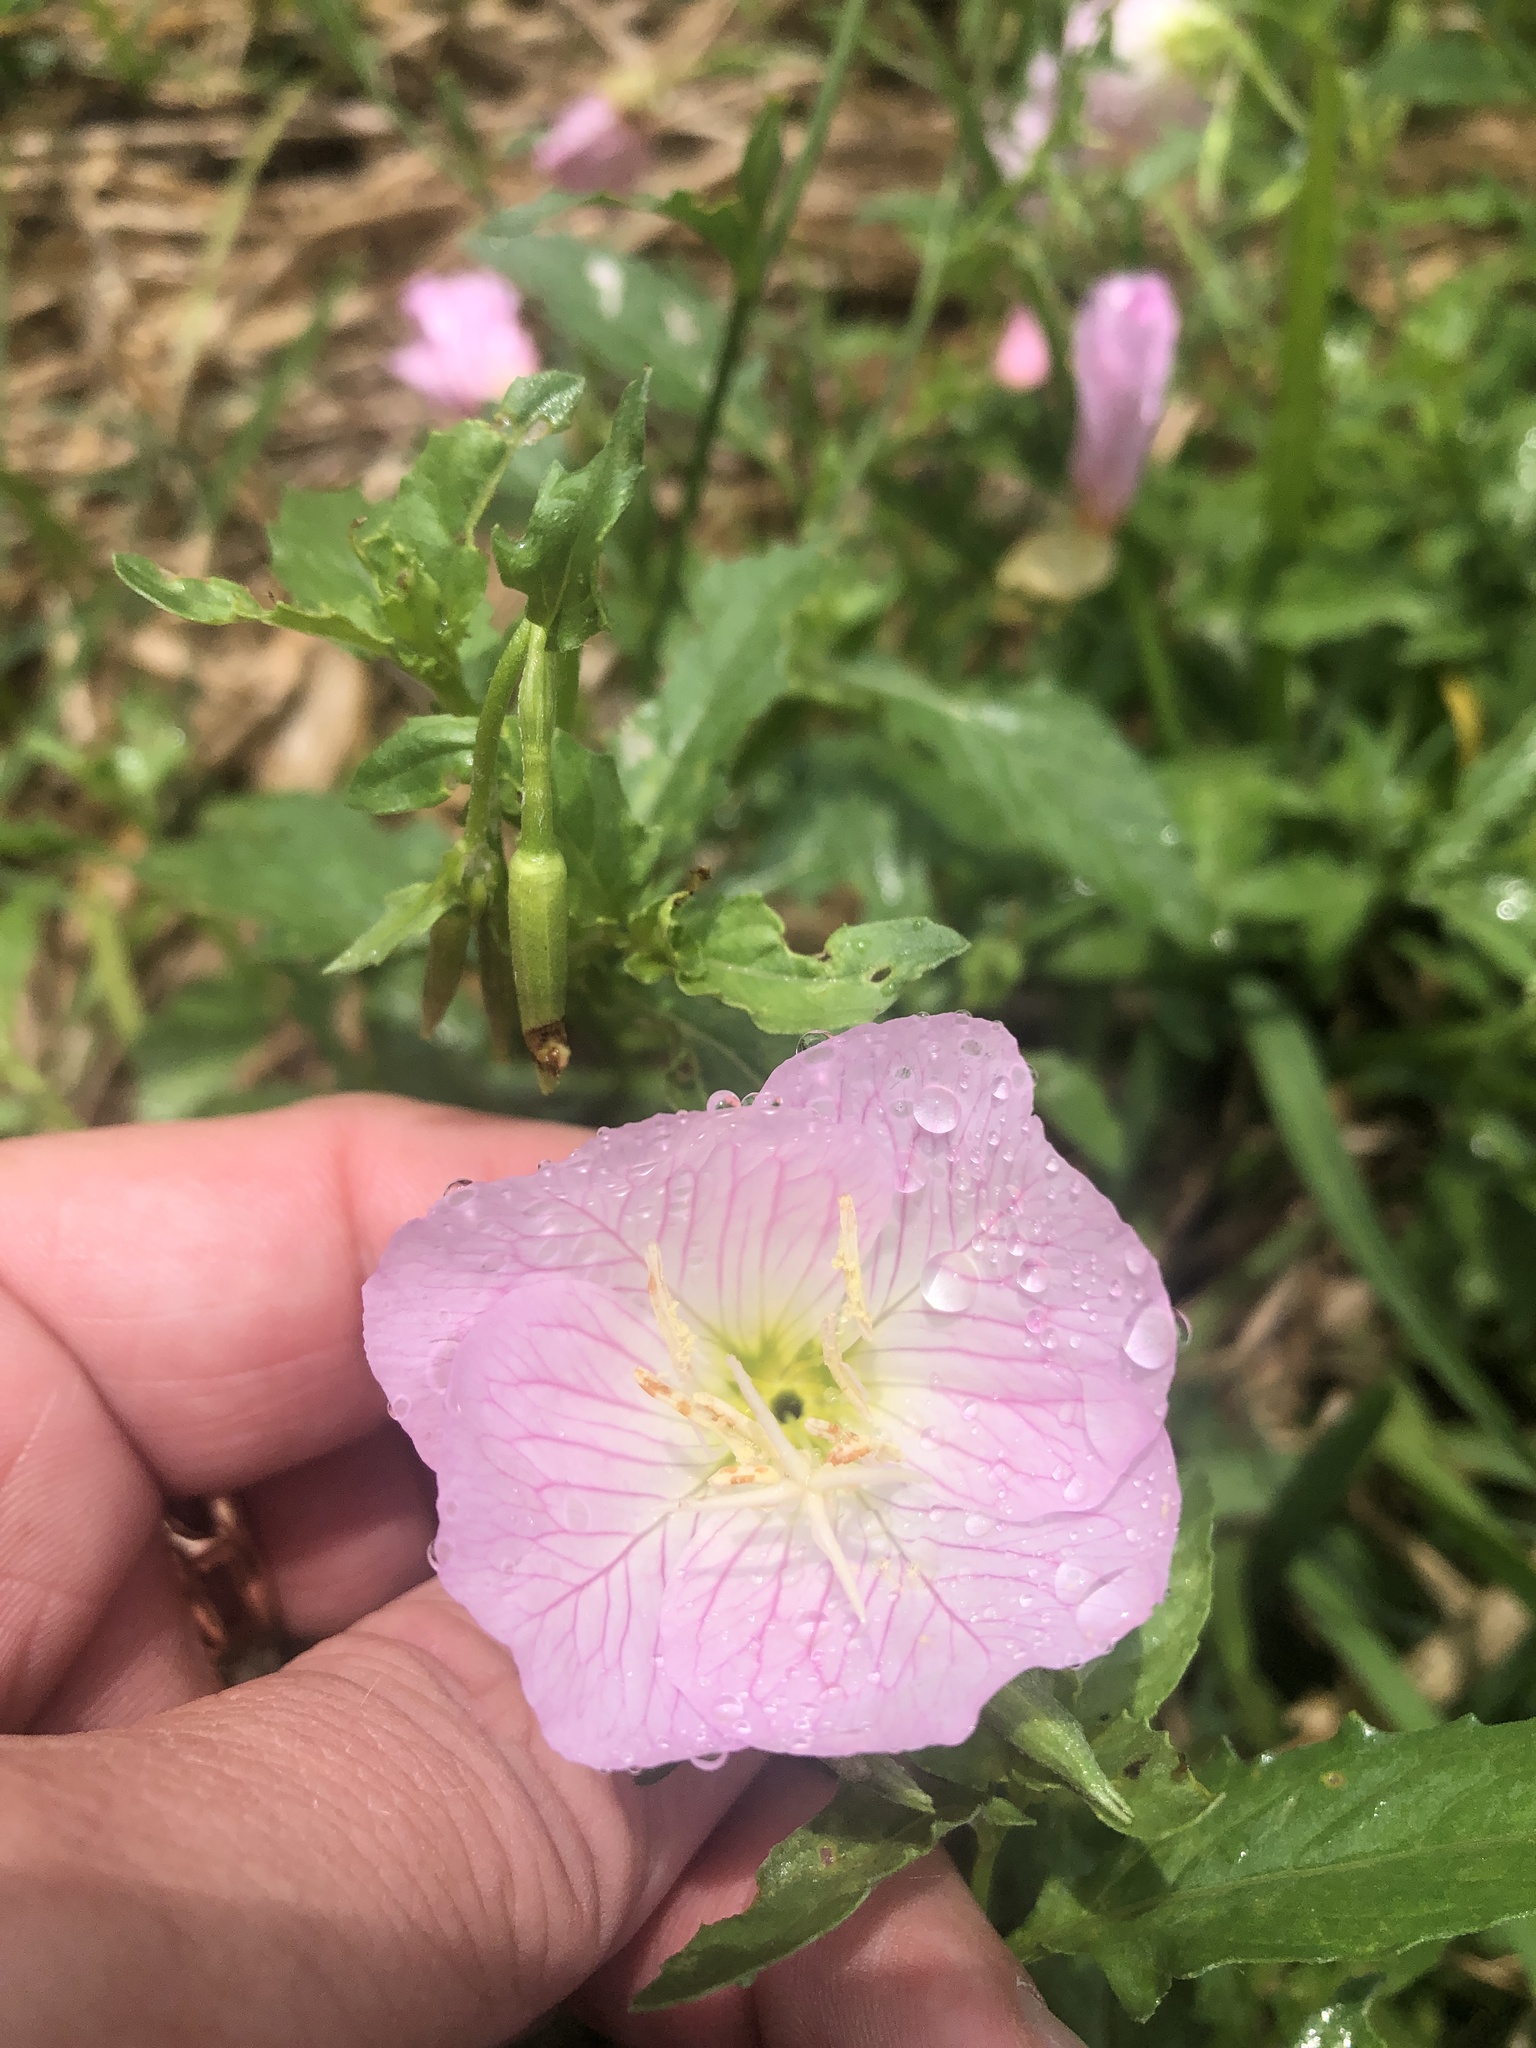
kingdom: Plantae
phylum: Tracheophyta
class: Magnoliopsida
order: Myrtales
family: Onagraceae
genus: Oenothera
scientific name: Oenothera speciosa
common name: White evening-primrose
